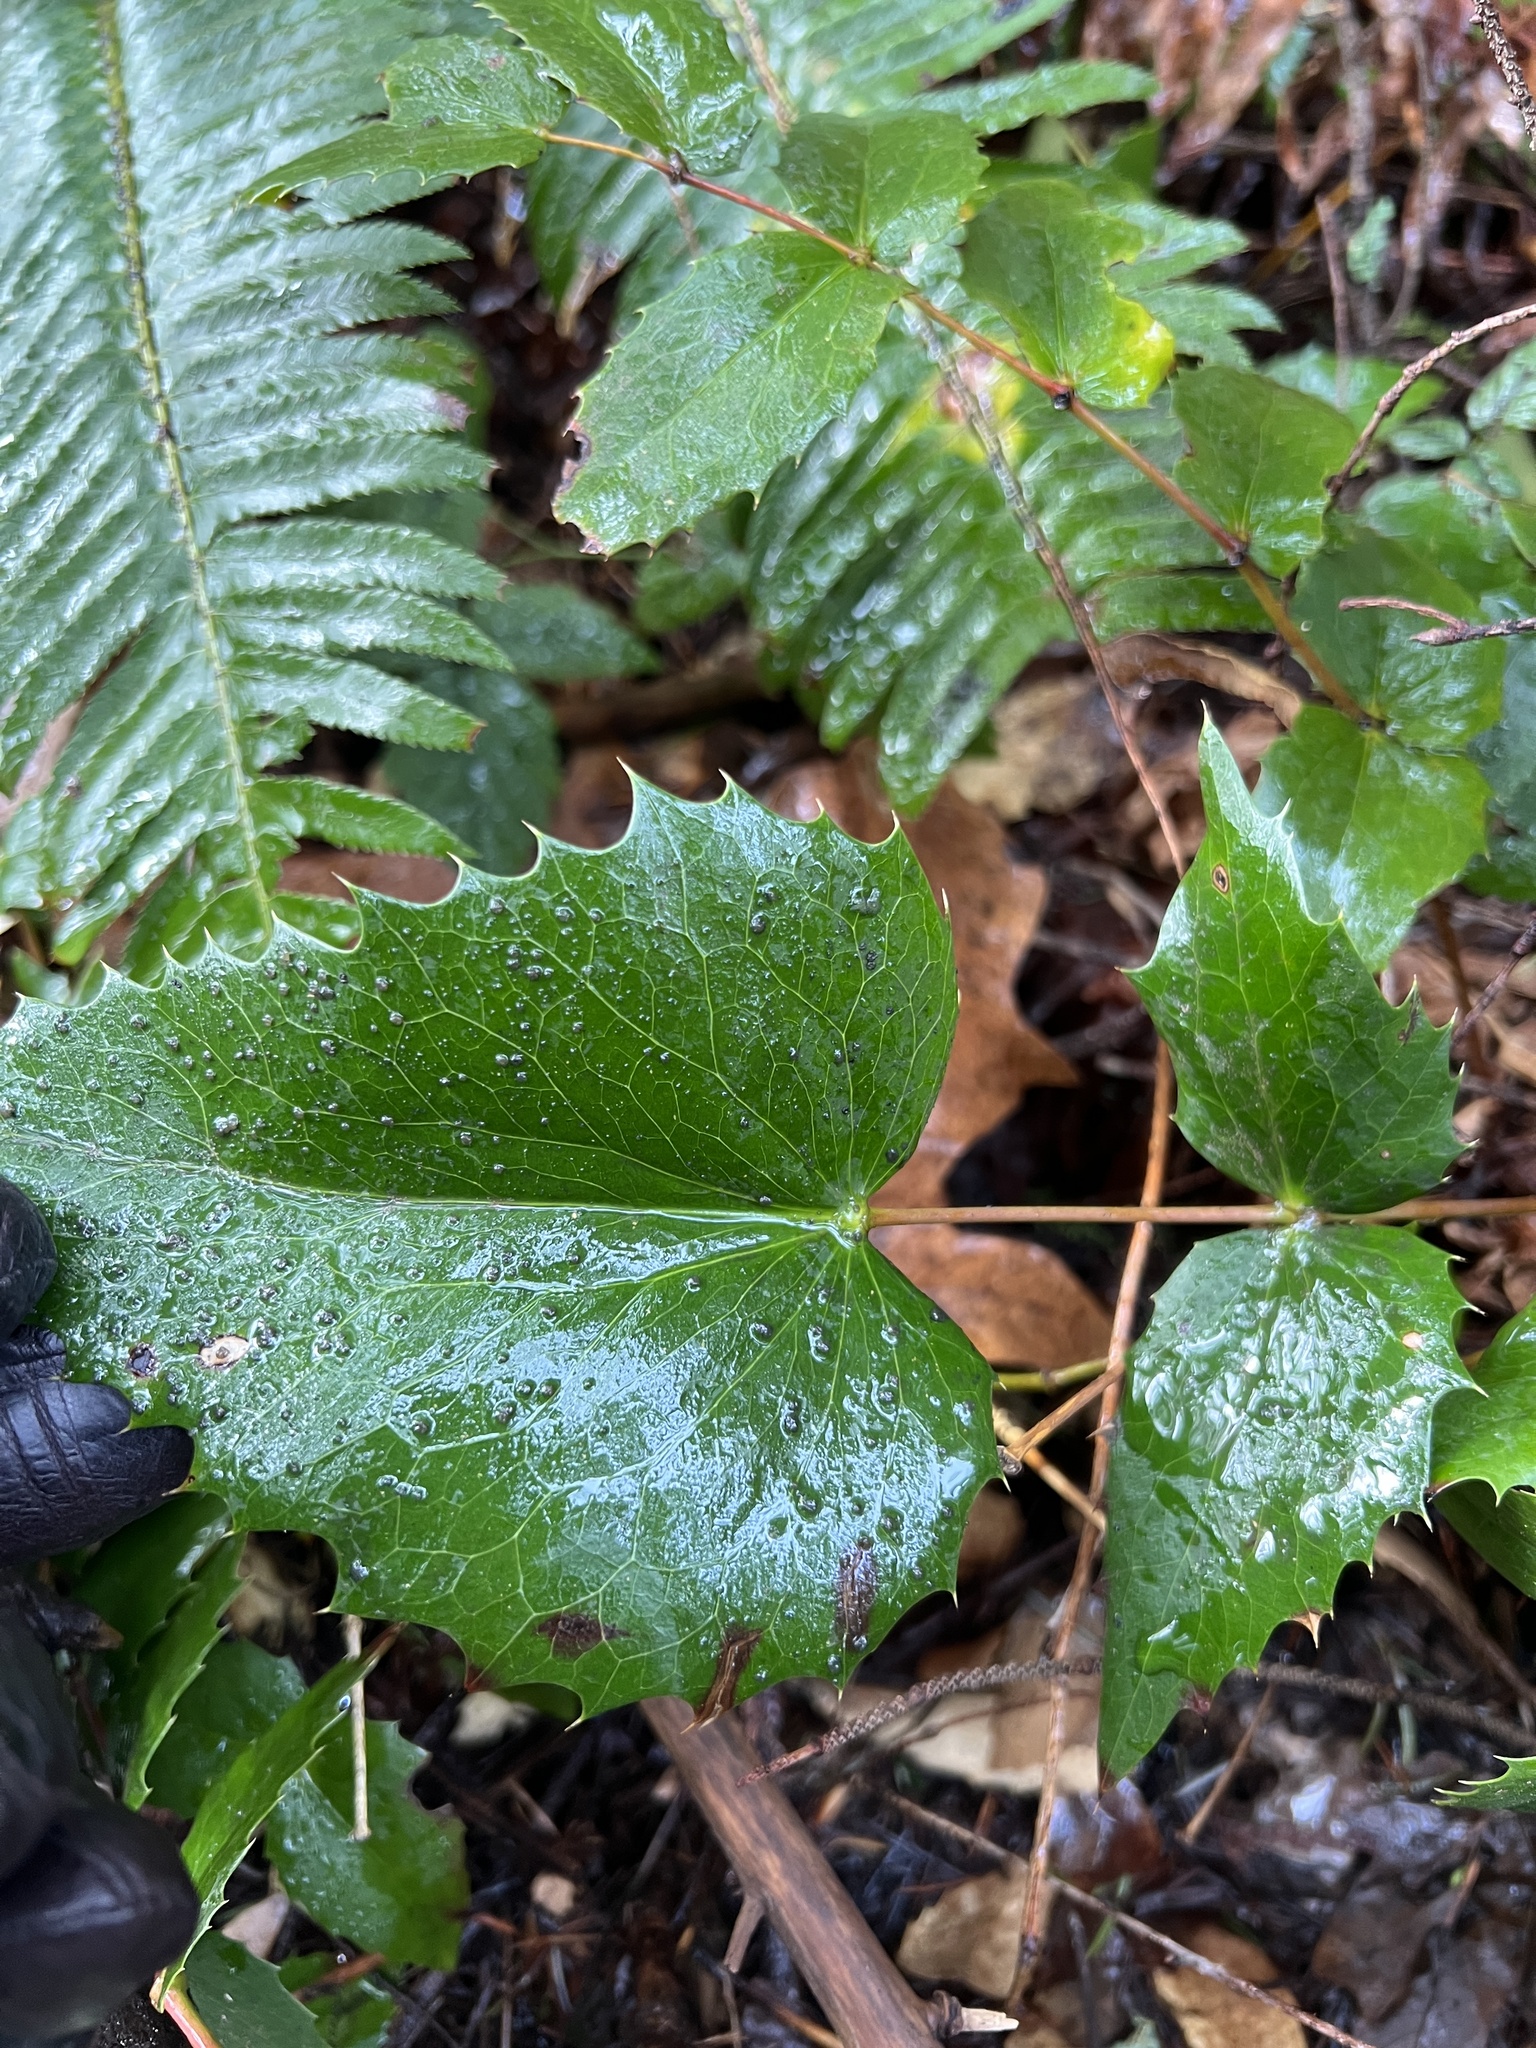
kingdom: Plantae
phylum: Tracheophyta
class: Magnoliopsida
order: Ranunculales
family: Berberidaceae
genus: Mahonia
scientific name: Mahonia nervosa
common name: Cascade oregon-grape
